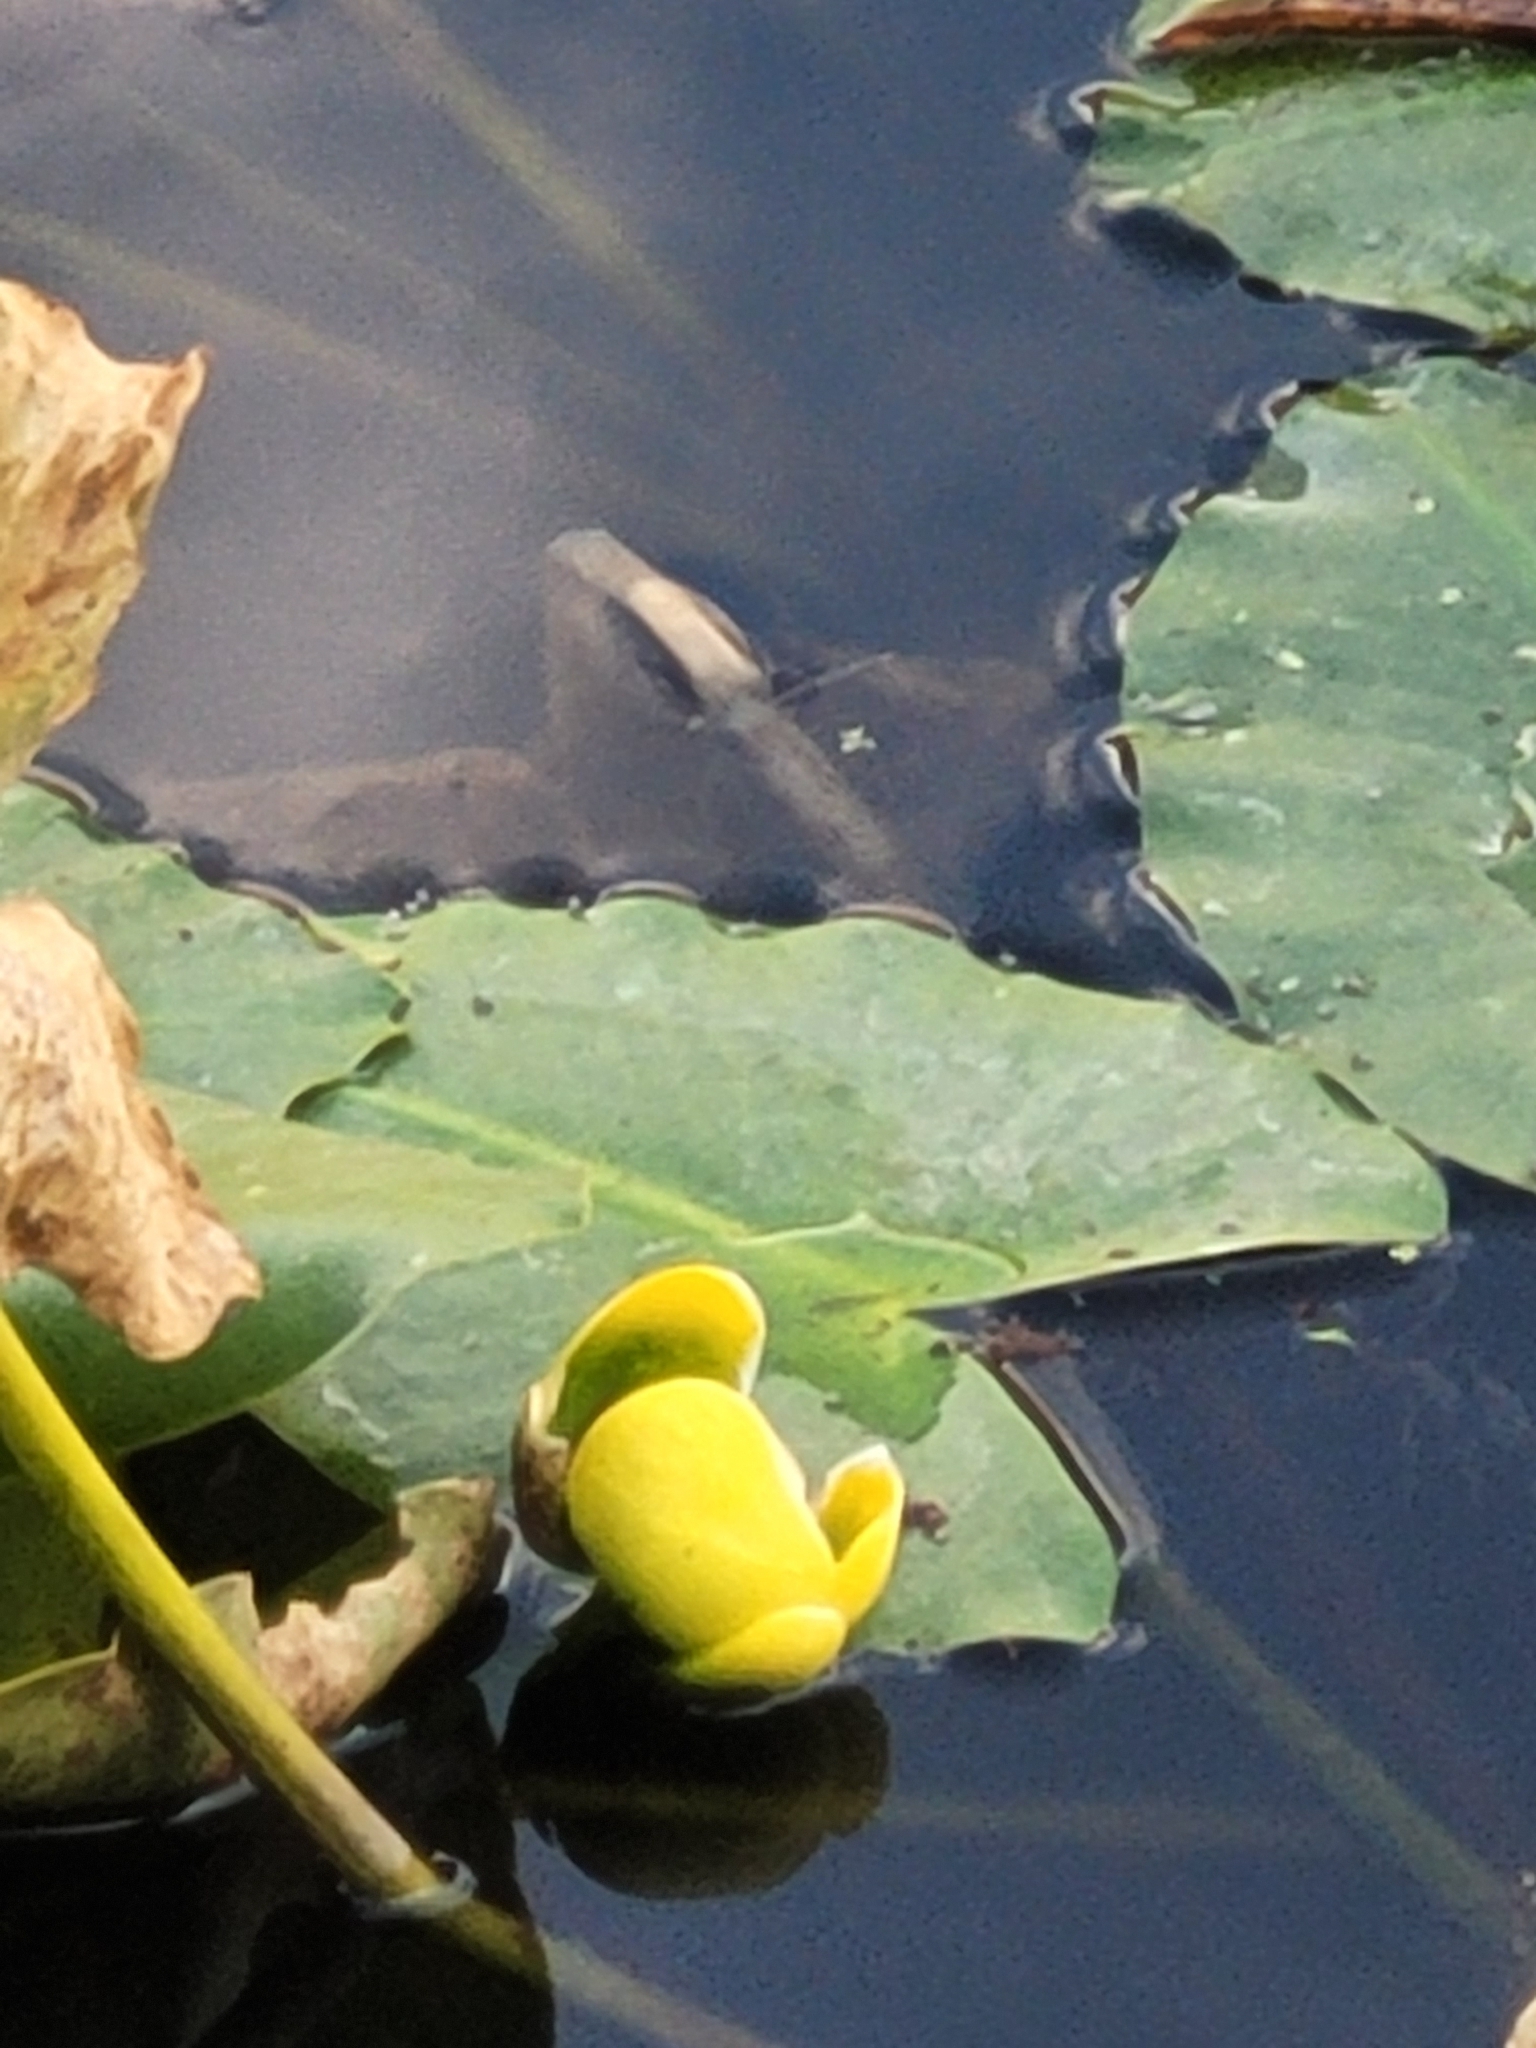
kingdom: Plantae
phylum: Tracheophyta
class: Magnoliopsida
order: Nymphaeales
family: Nymphaeaceae
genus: Nuphar
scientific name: Nuphar advena
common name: Spatter-dock
